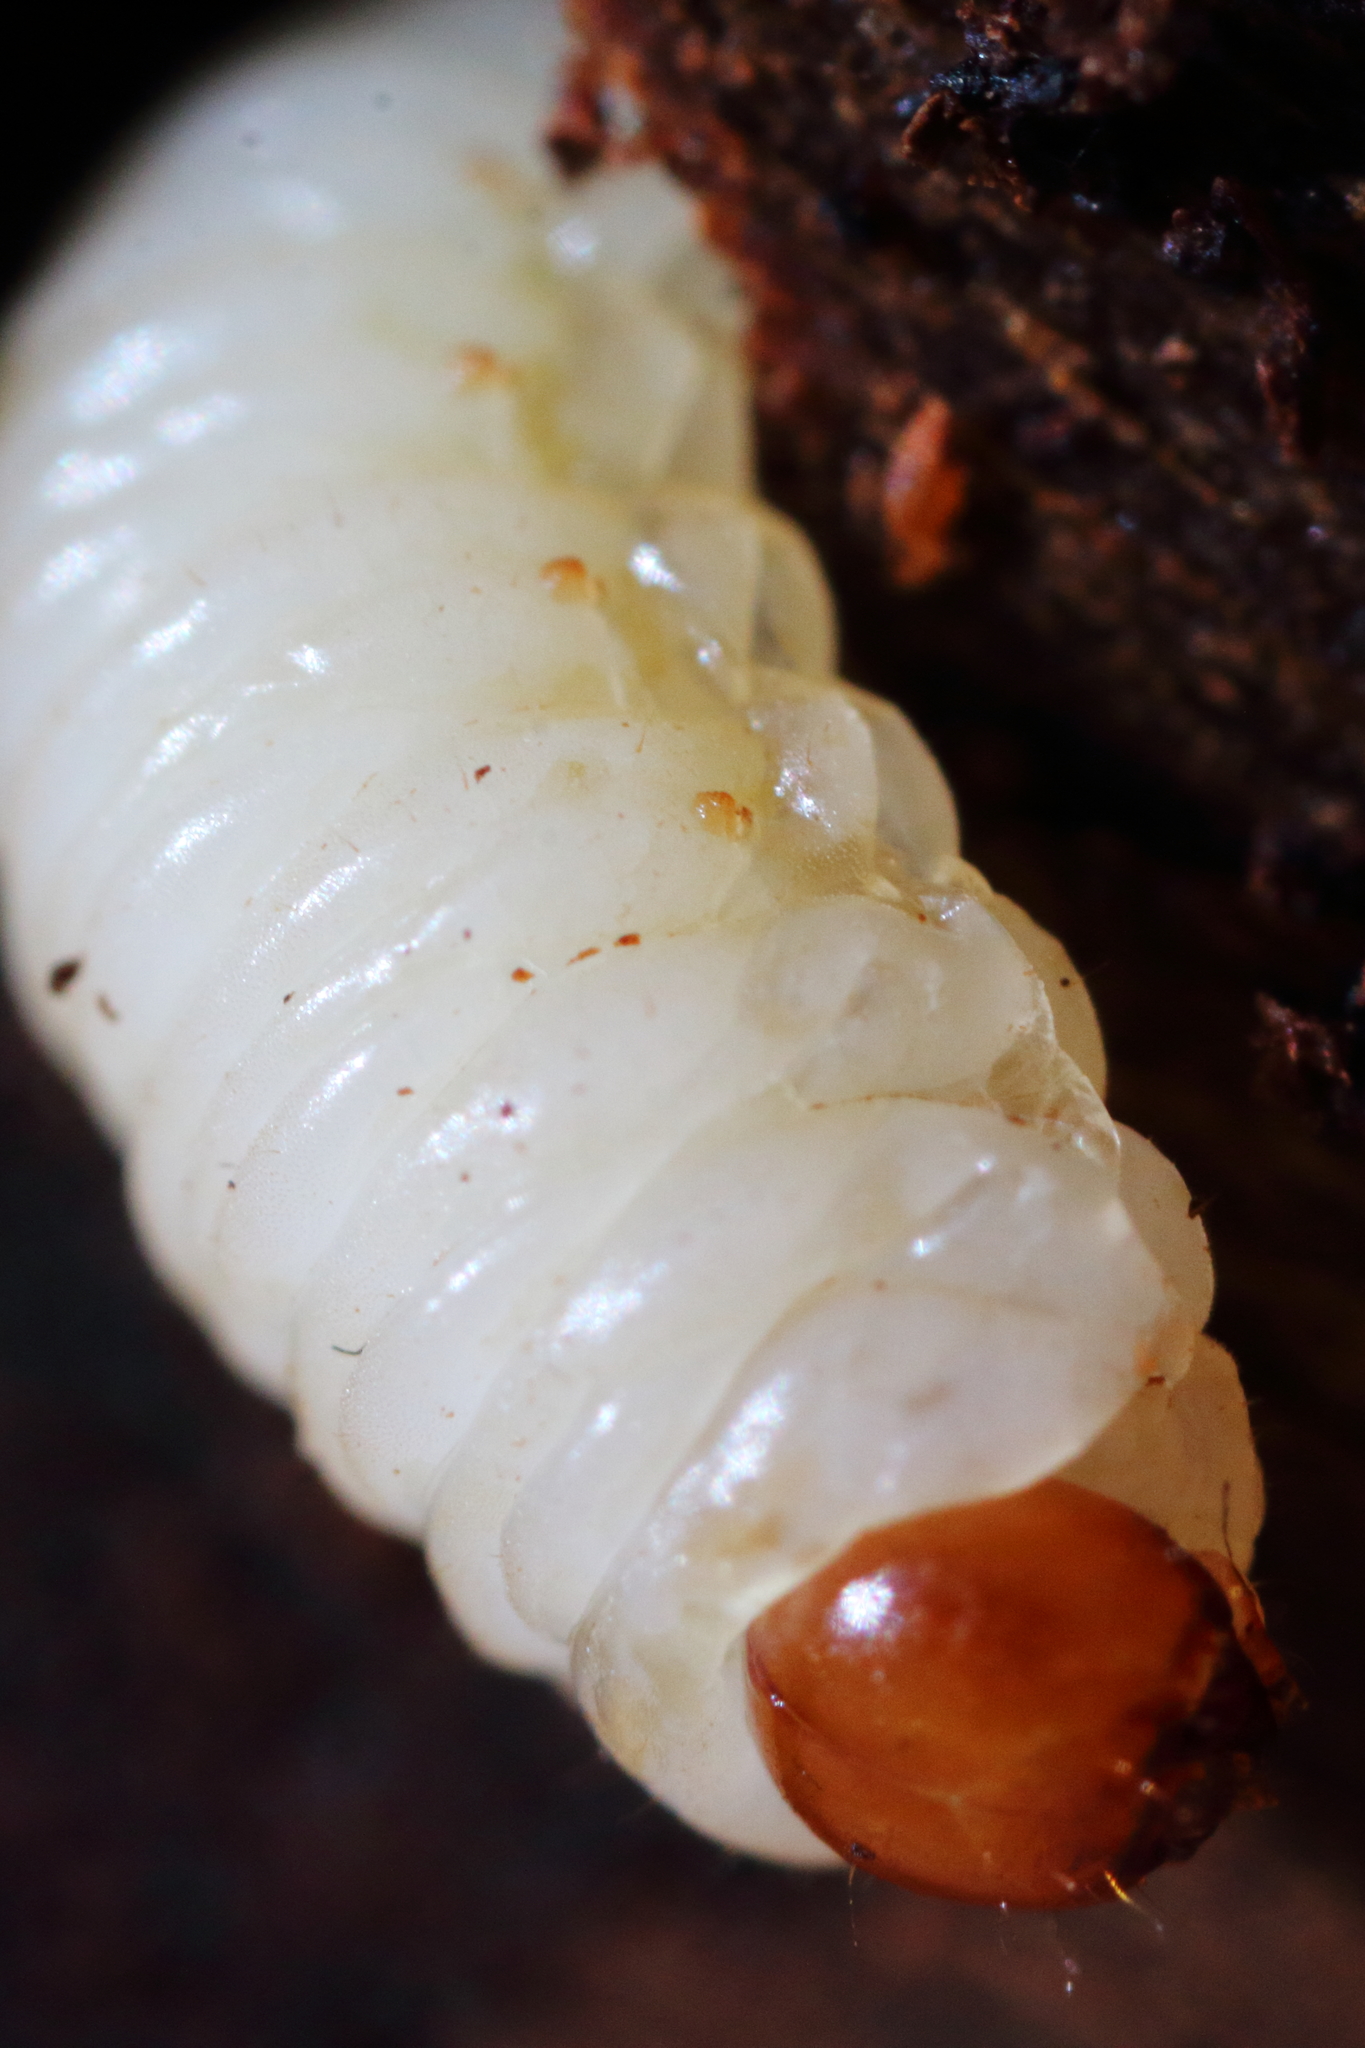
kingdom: Animalia
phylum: Arthropoda
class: Insecta
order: Coleoptera
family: Curculionidae
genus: Dendroctonus
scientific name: Dendroctonus rufipennis
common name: Spruce beetle
